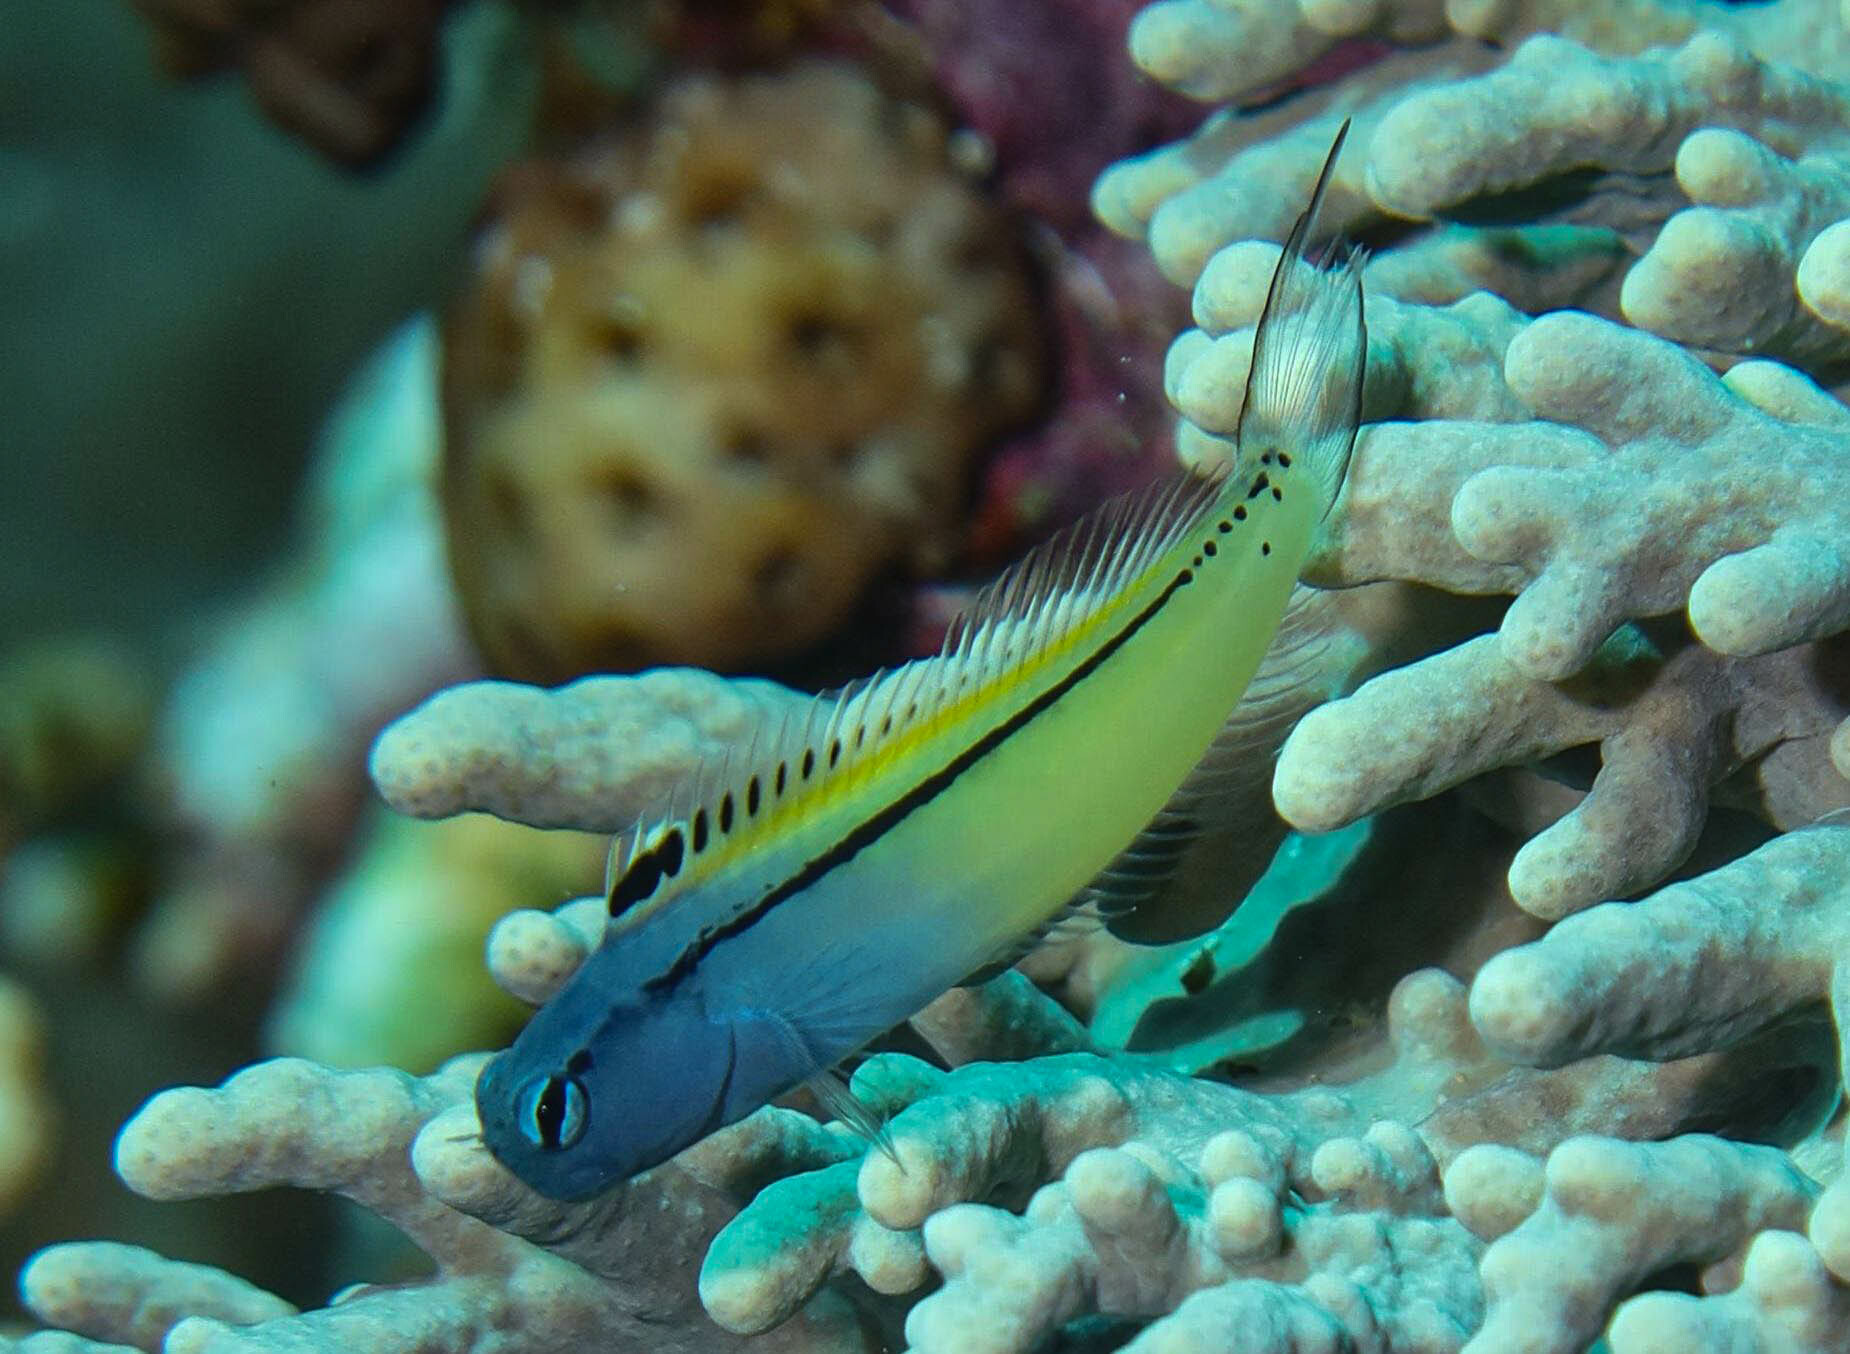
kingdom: Animalia
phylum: Chordata
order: Perciformes
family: Blenniidae
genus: Ecsenius
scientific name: Ecsenius gravieri
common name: Red sea mimic blenny
